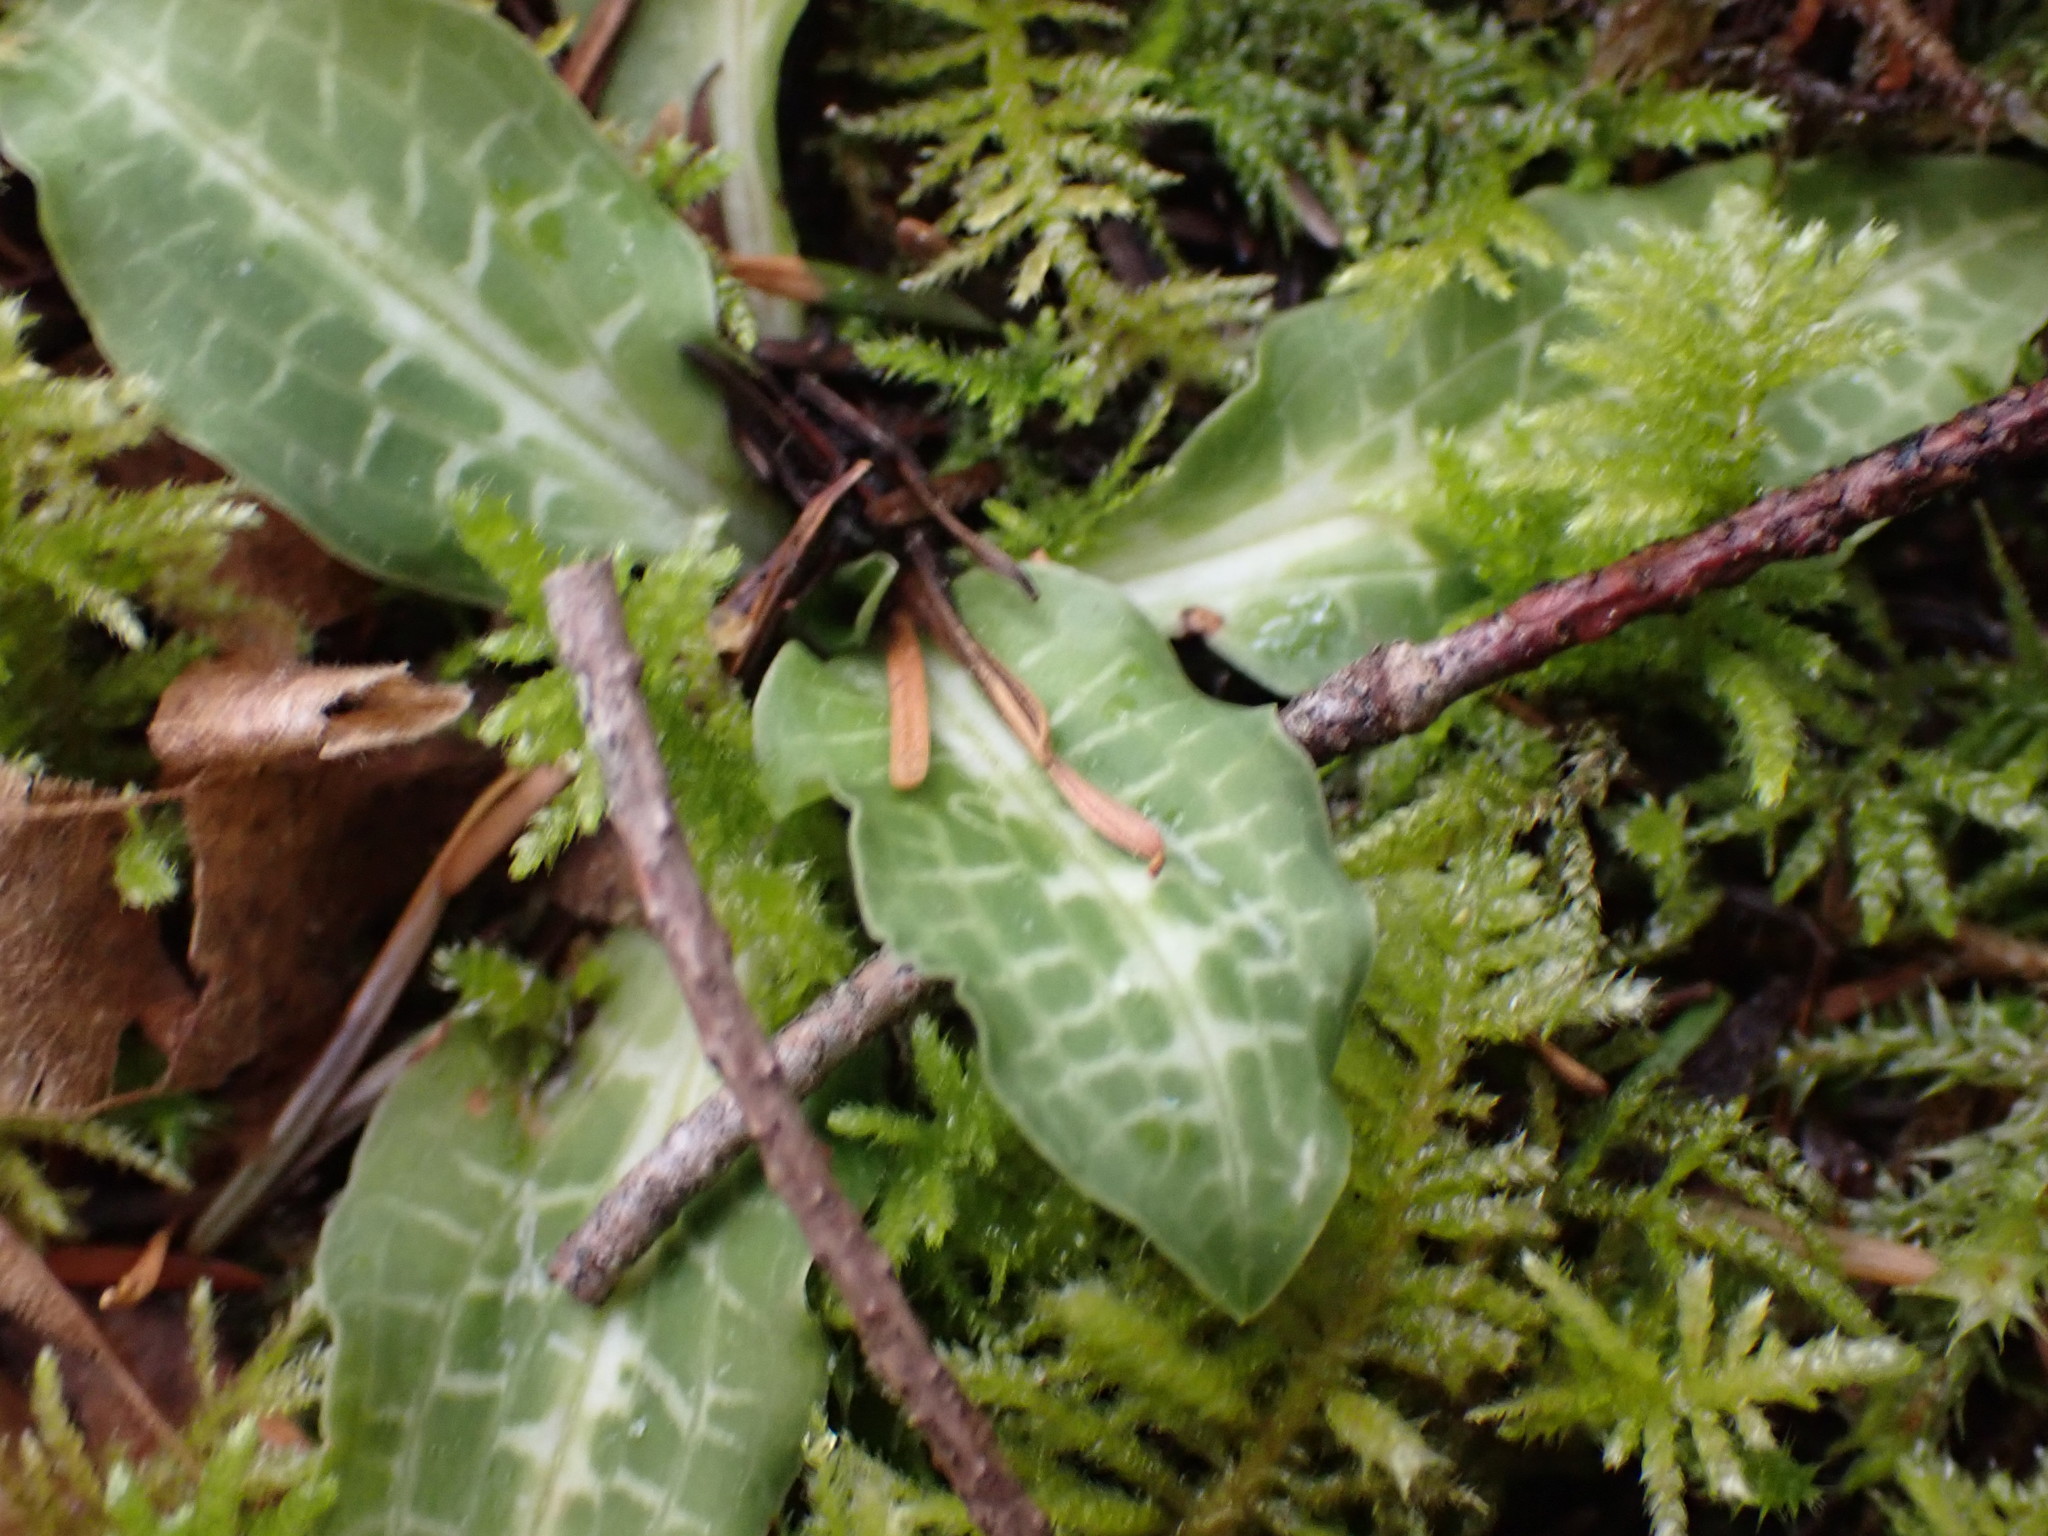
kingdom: Plantae
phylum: Tracheophyta
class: Liliopsida
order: Asparagales
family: Orchidaceae
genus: Goodyera
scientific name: Goodyera oblongifolia
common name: Giant rattlesnake-plantain
